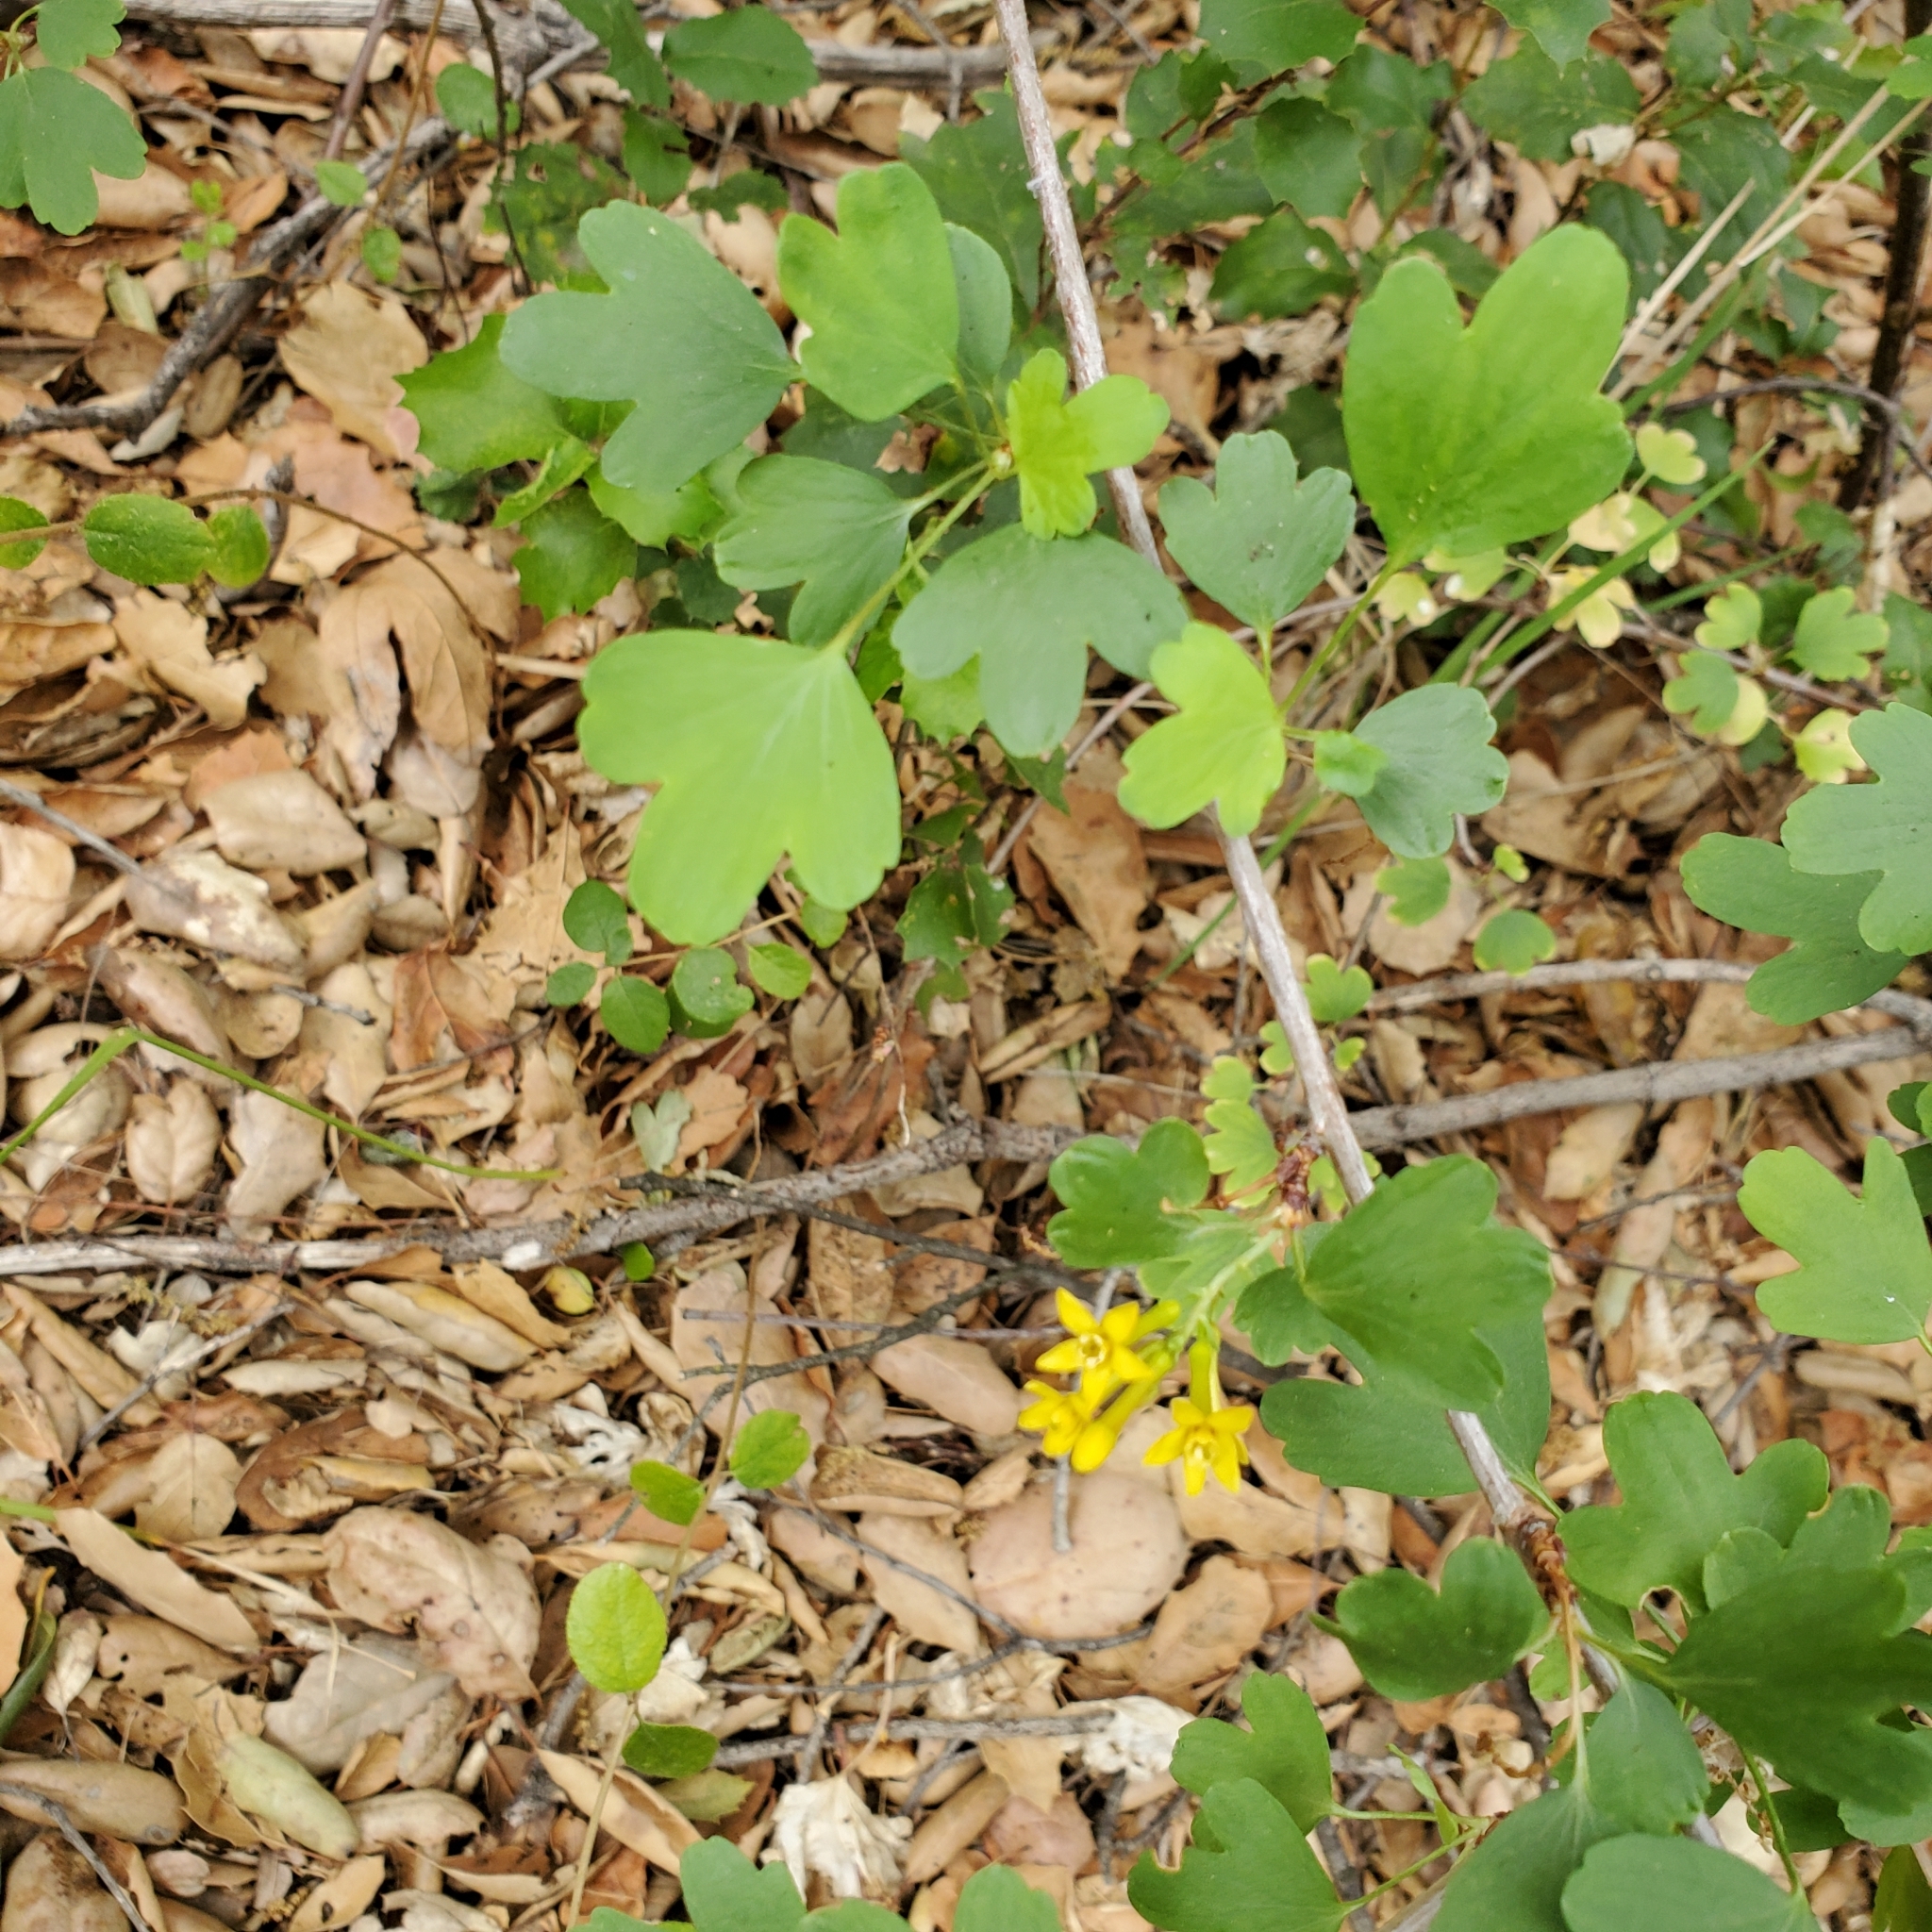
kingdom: Plantae
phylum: Tracheophyta
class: Magnoliopsida
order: Saxifragales
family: Grossulariaceae
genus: Ribes
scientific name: Ribes aureum
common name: Golden currant
